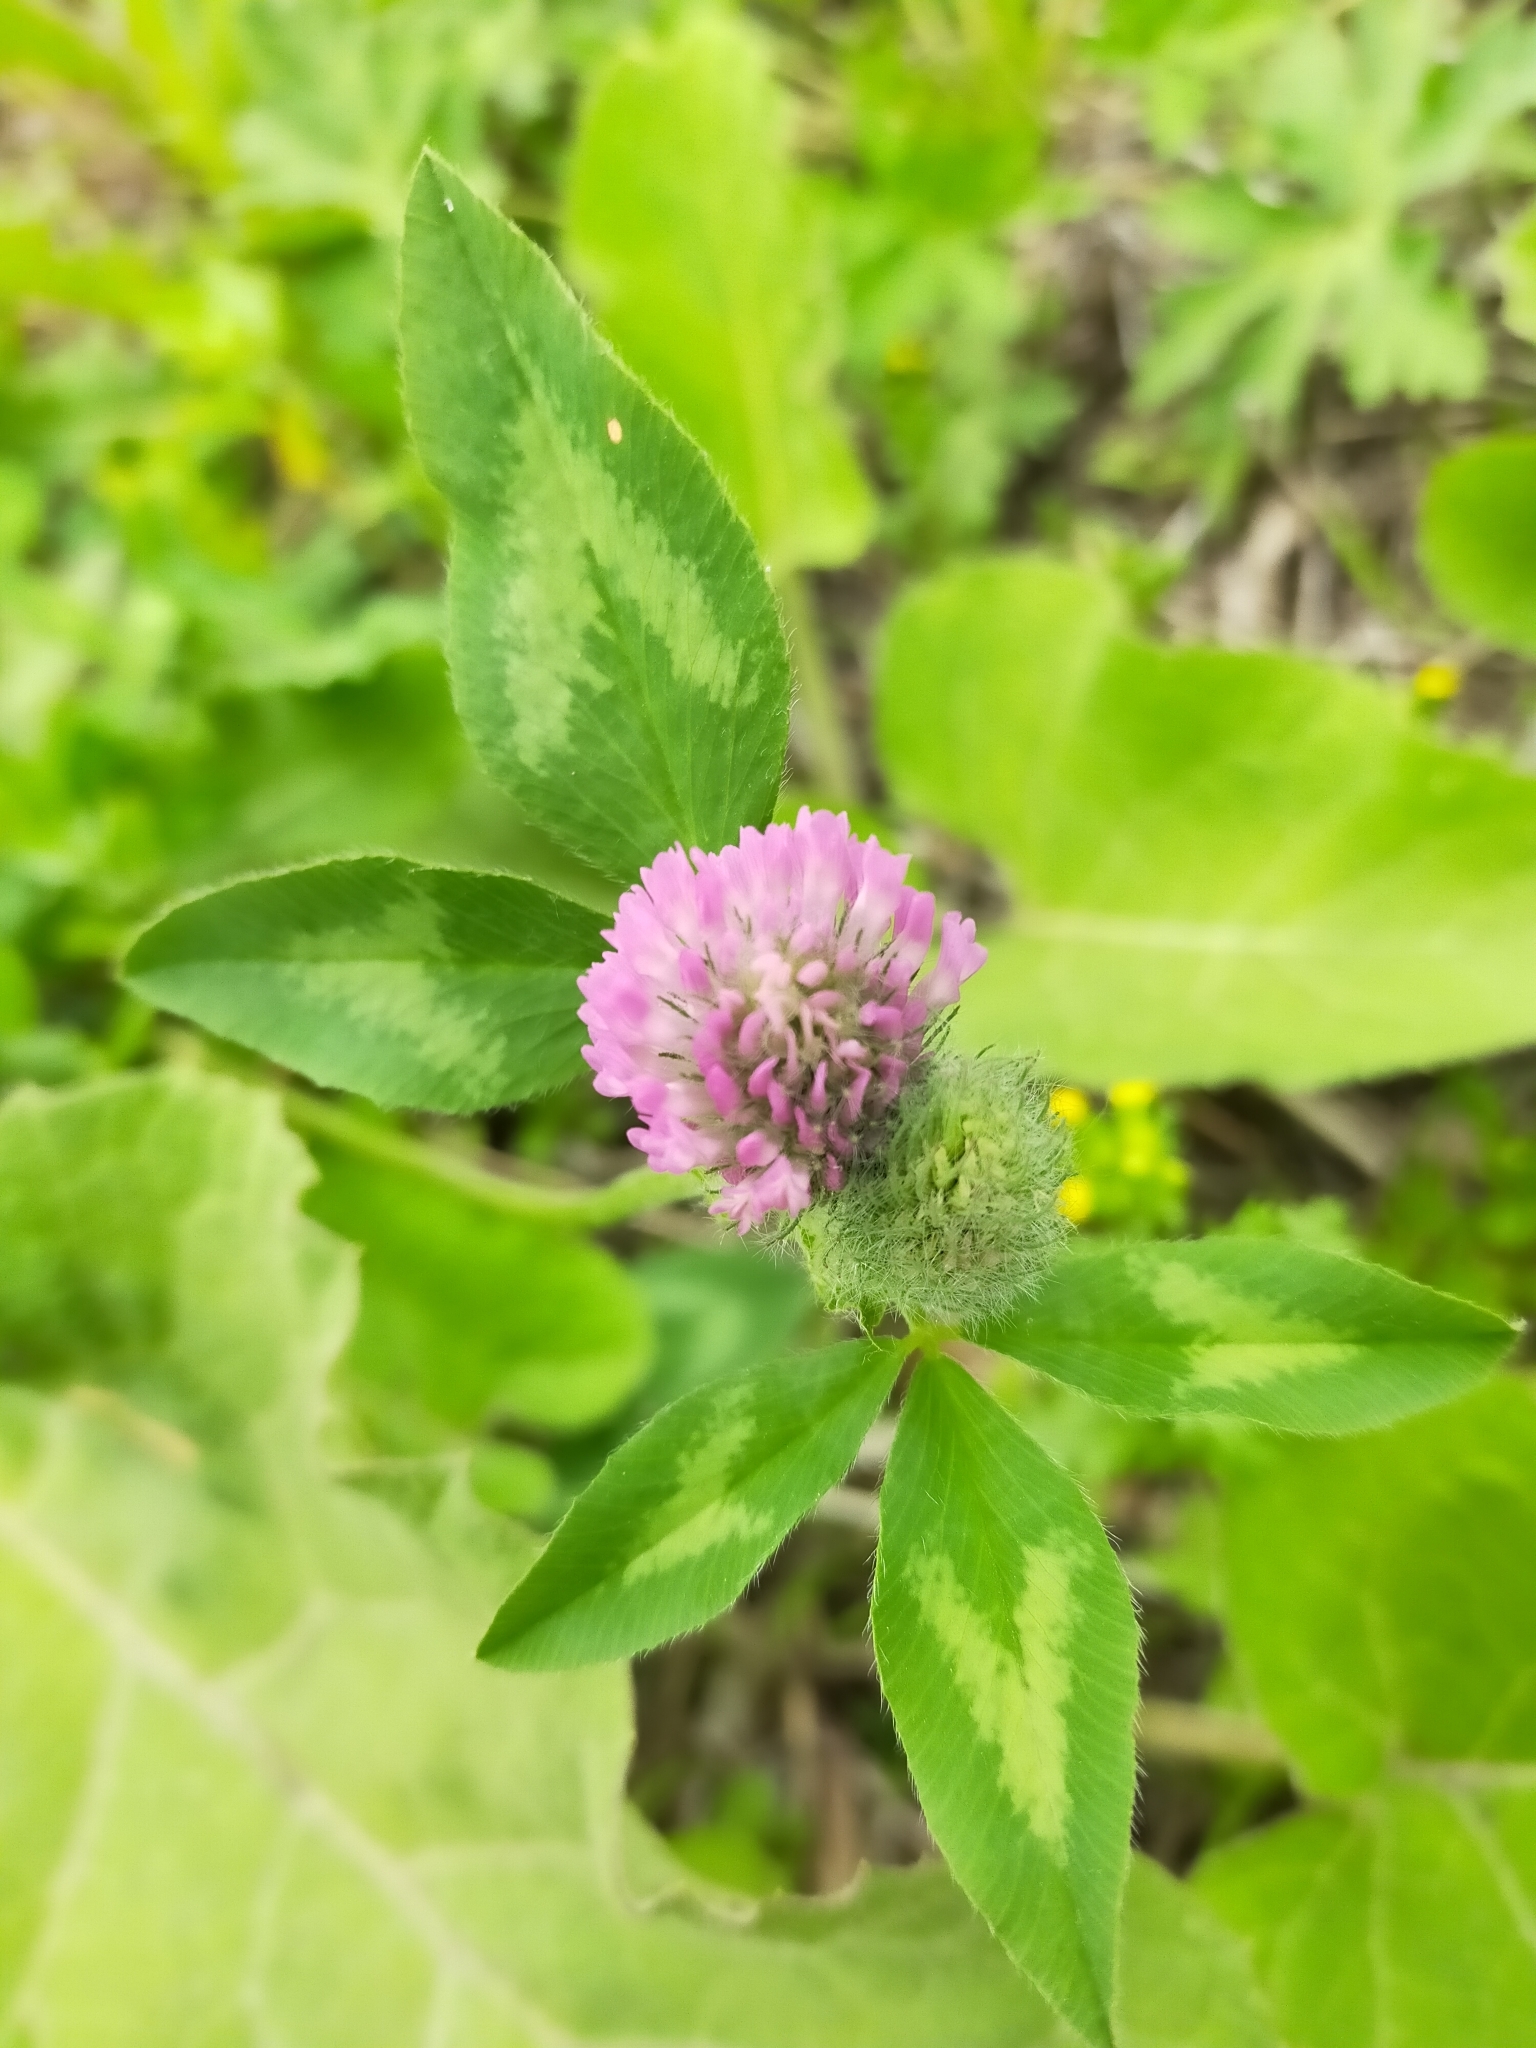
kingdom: Plantae
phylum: Tracheophyta
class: Magnoliopsida
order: Fabales
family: Fabaceae
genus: Trifolium
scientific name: Trifolium pratense
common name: Red clover
